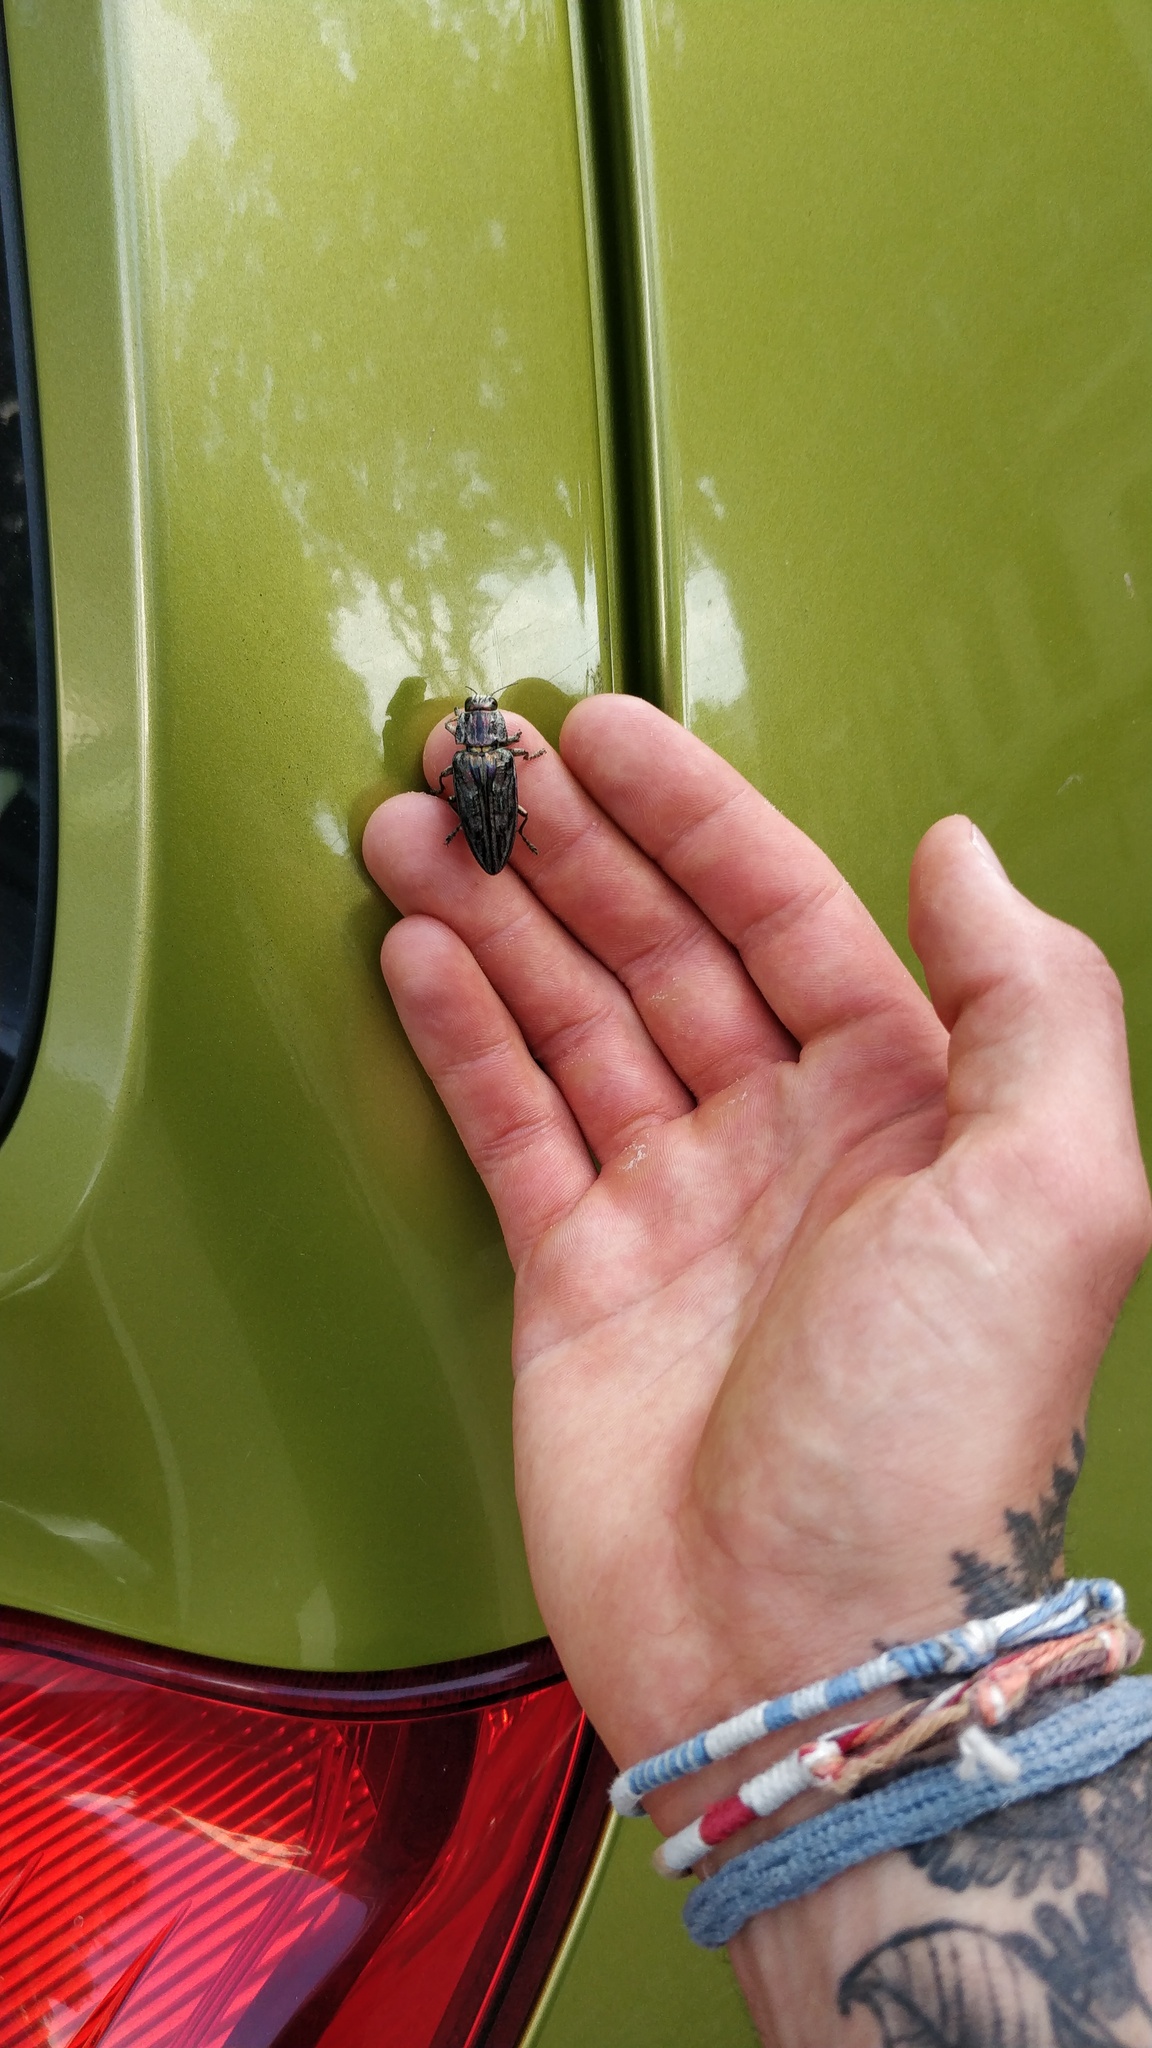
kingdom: Animalia
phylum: Arthropoda
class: Insecta
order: Coleoptera
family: Buprestidae
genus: Chalcophora
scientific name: Chalcophora massiliensis
